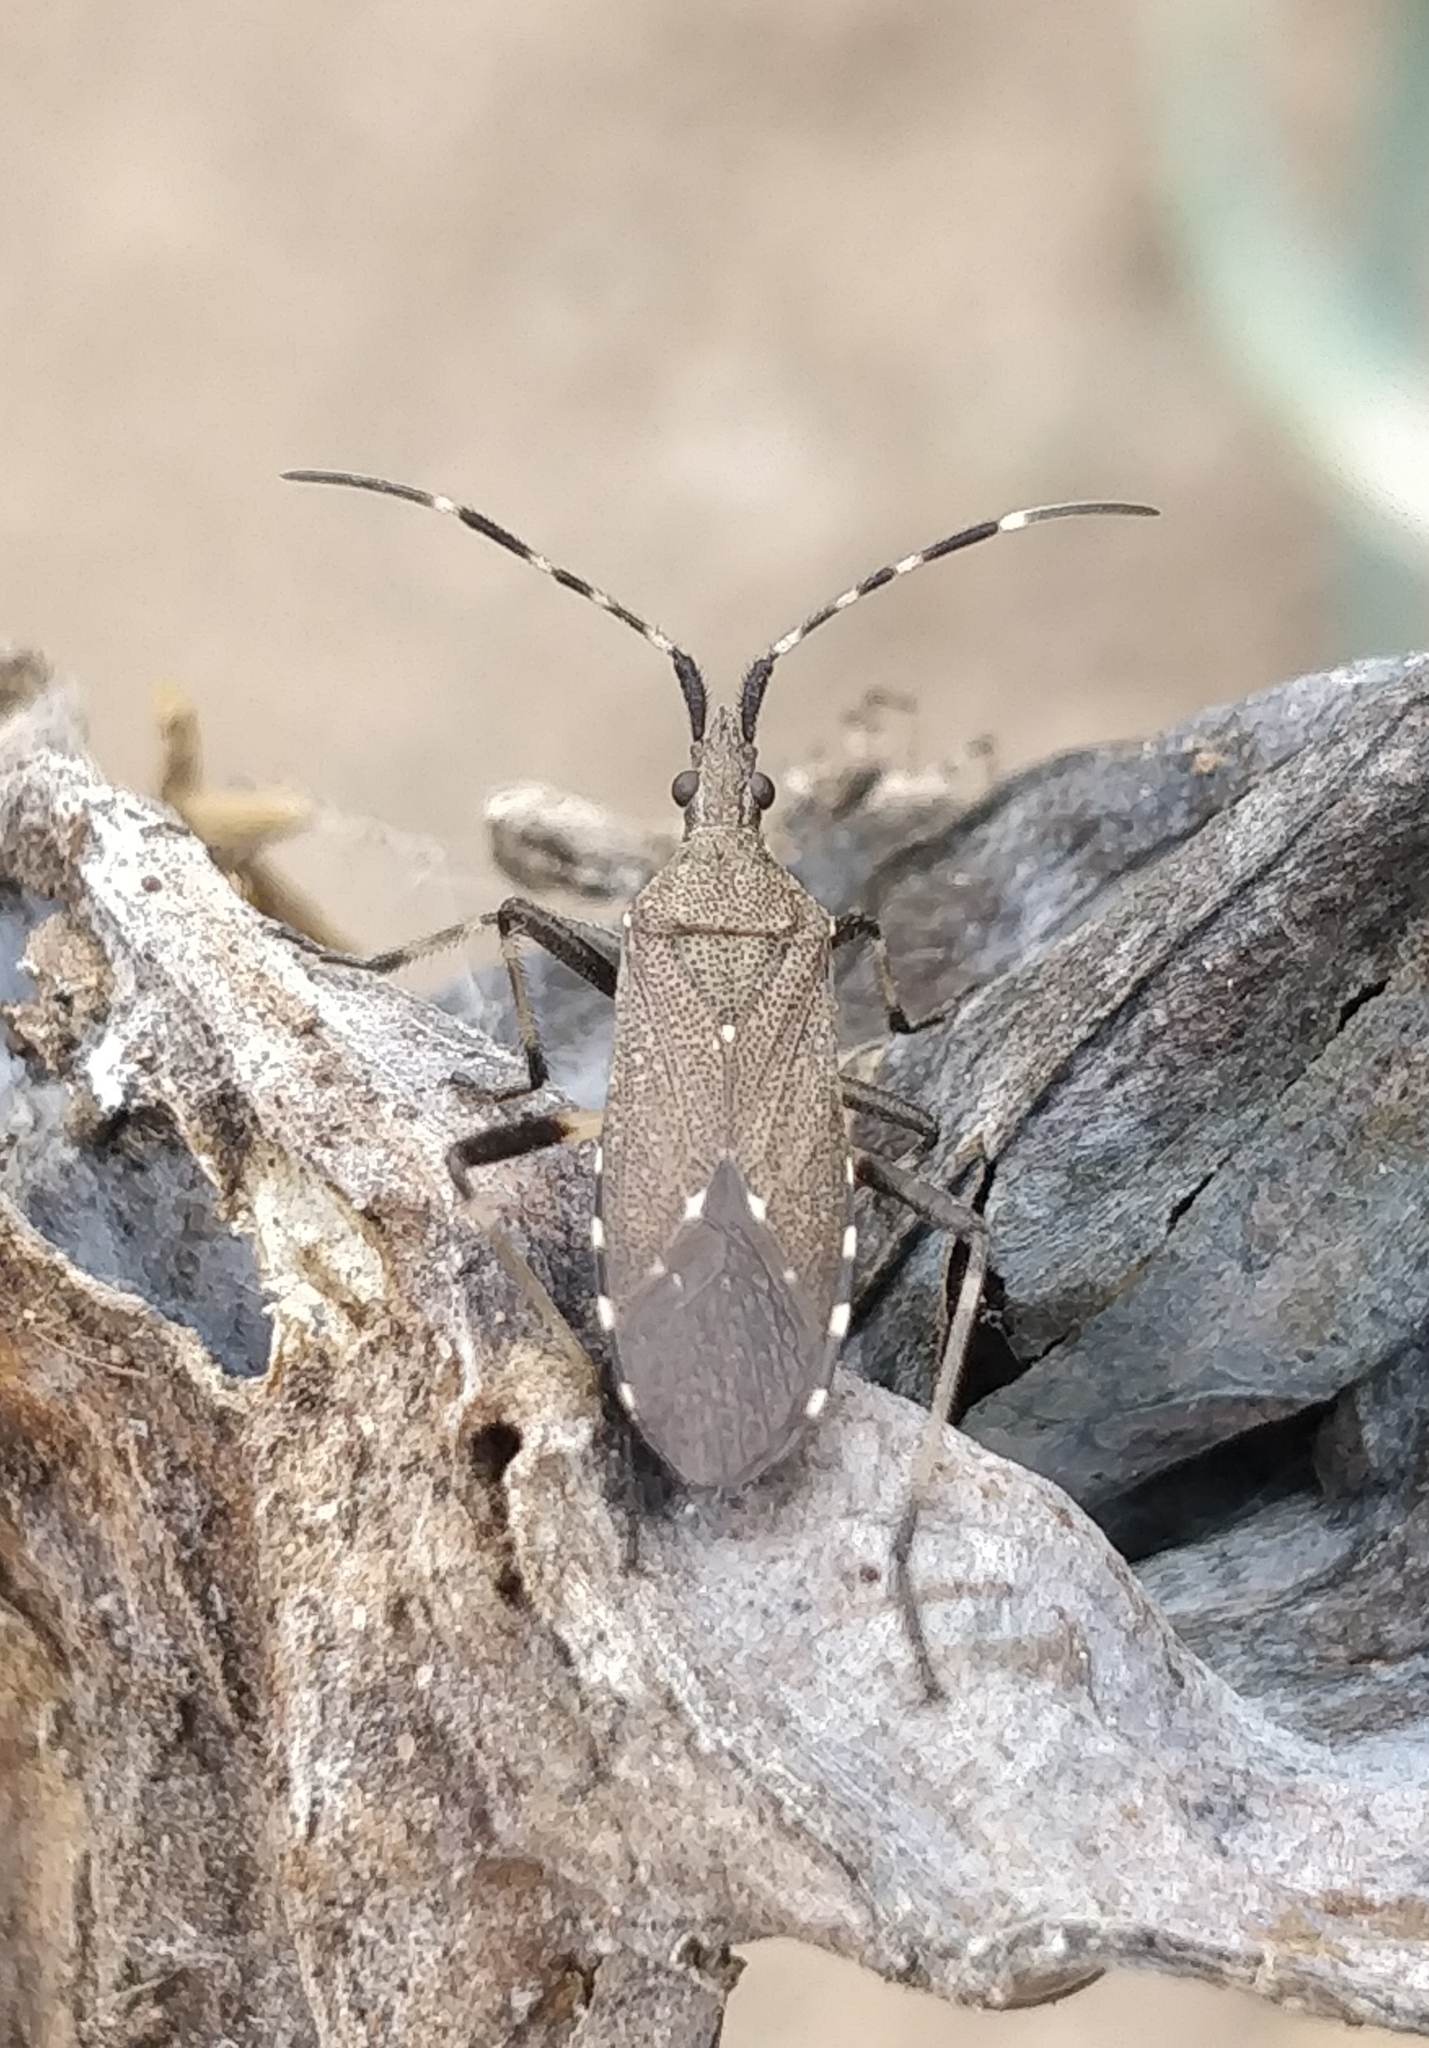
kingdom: Animalia
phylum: Arthropoda
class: Insecta
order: Hemiptera
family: Stenocephalidae
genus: Dicranocephalus
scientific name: Dicranocephalus agilis
